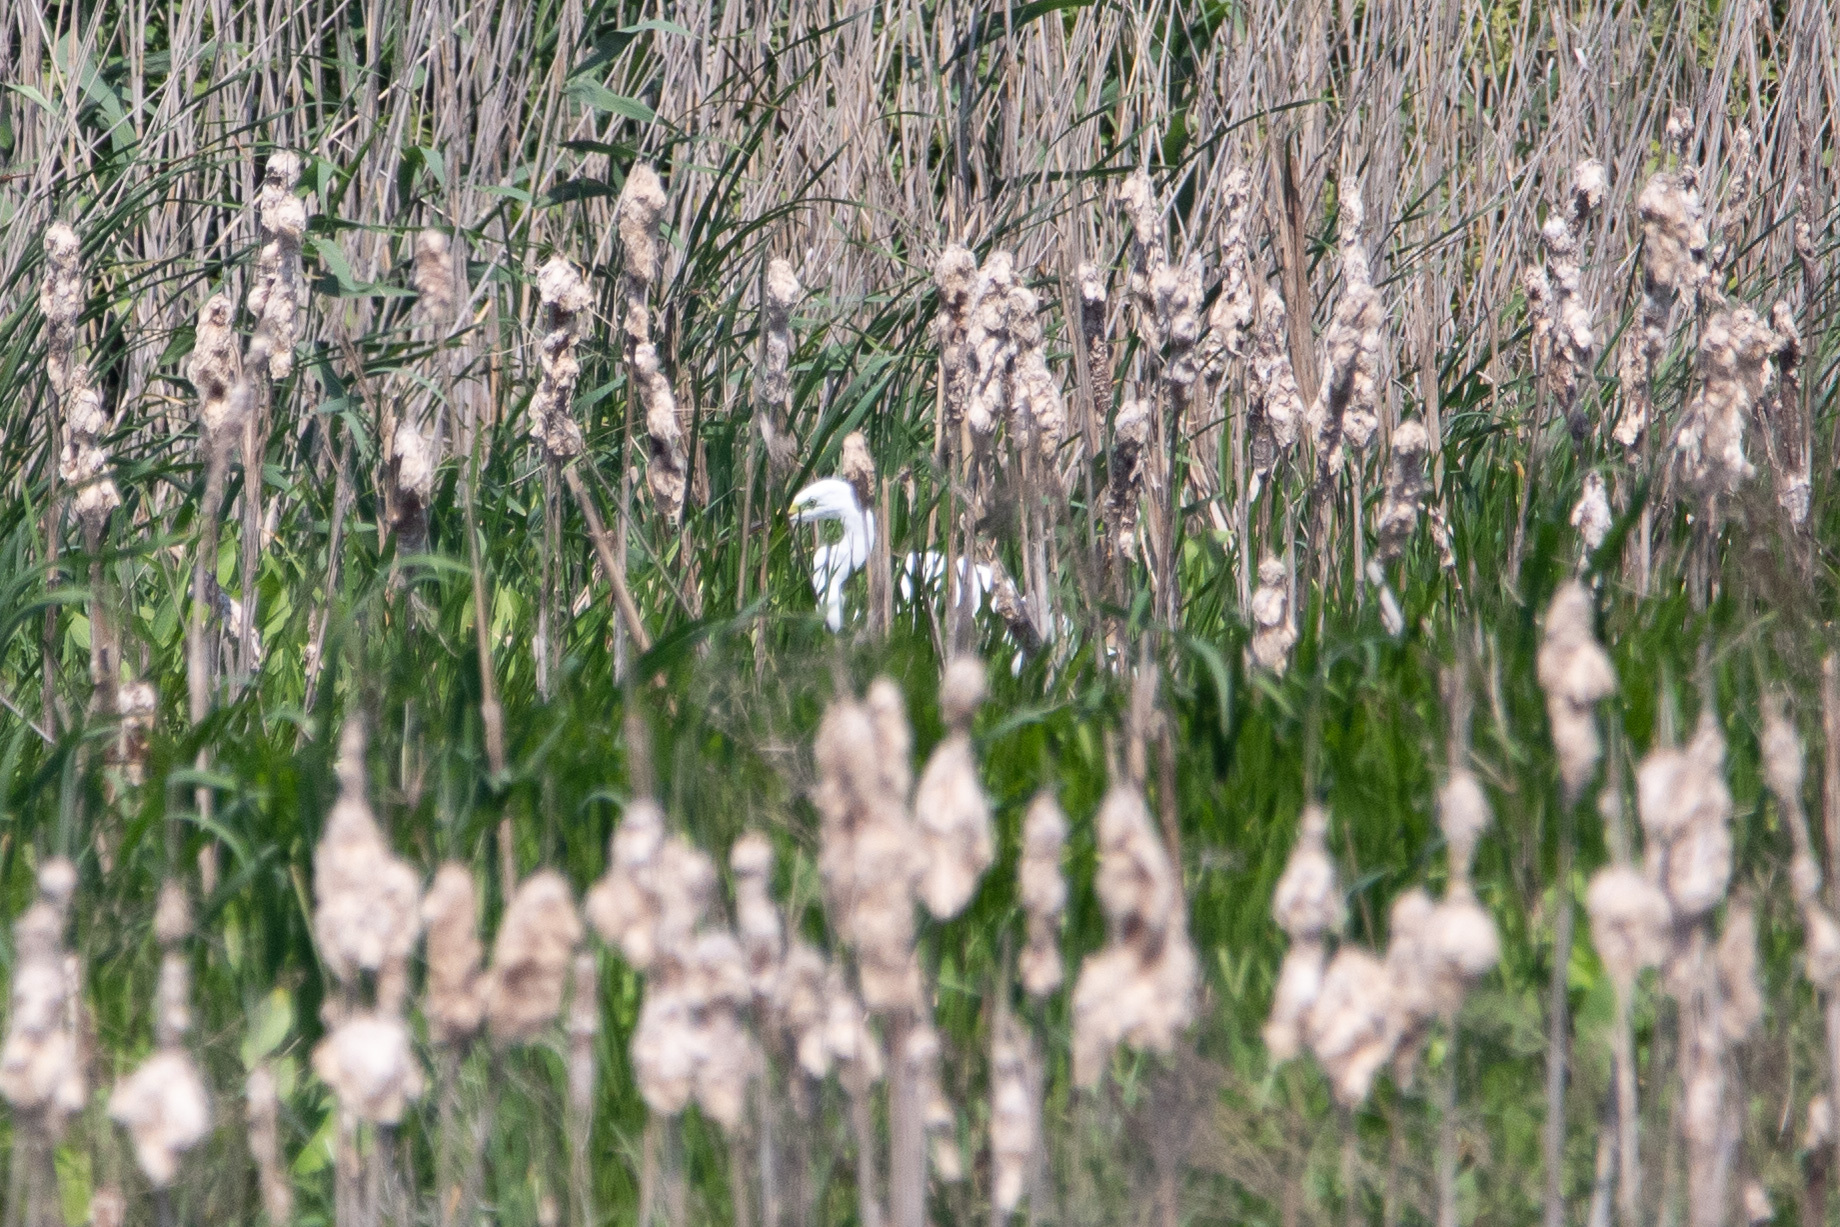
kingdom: Animalia
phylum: Chordata
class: Aves
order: Pelecaniformes
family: Ardeidae
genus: Ardea
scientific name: Ardea alba
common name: Great egret
